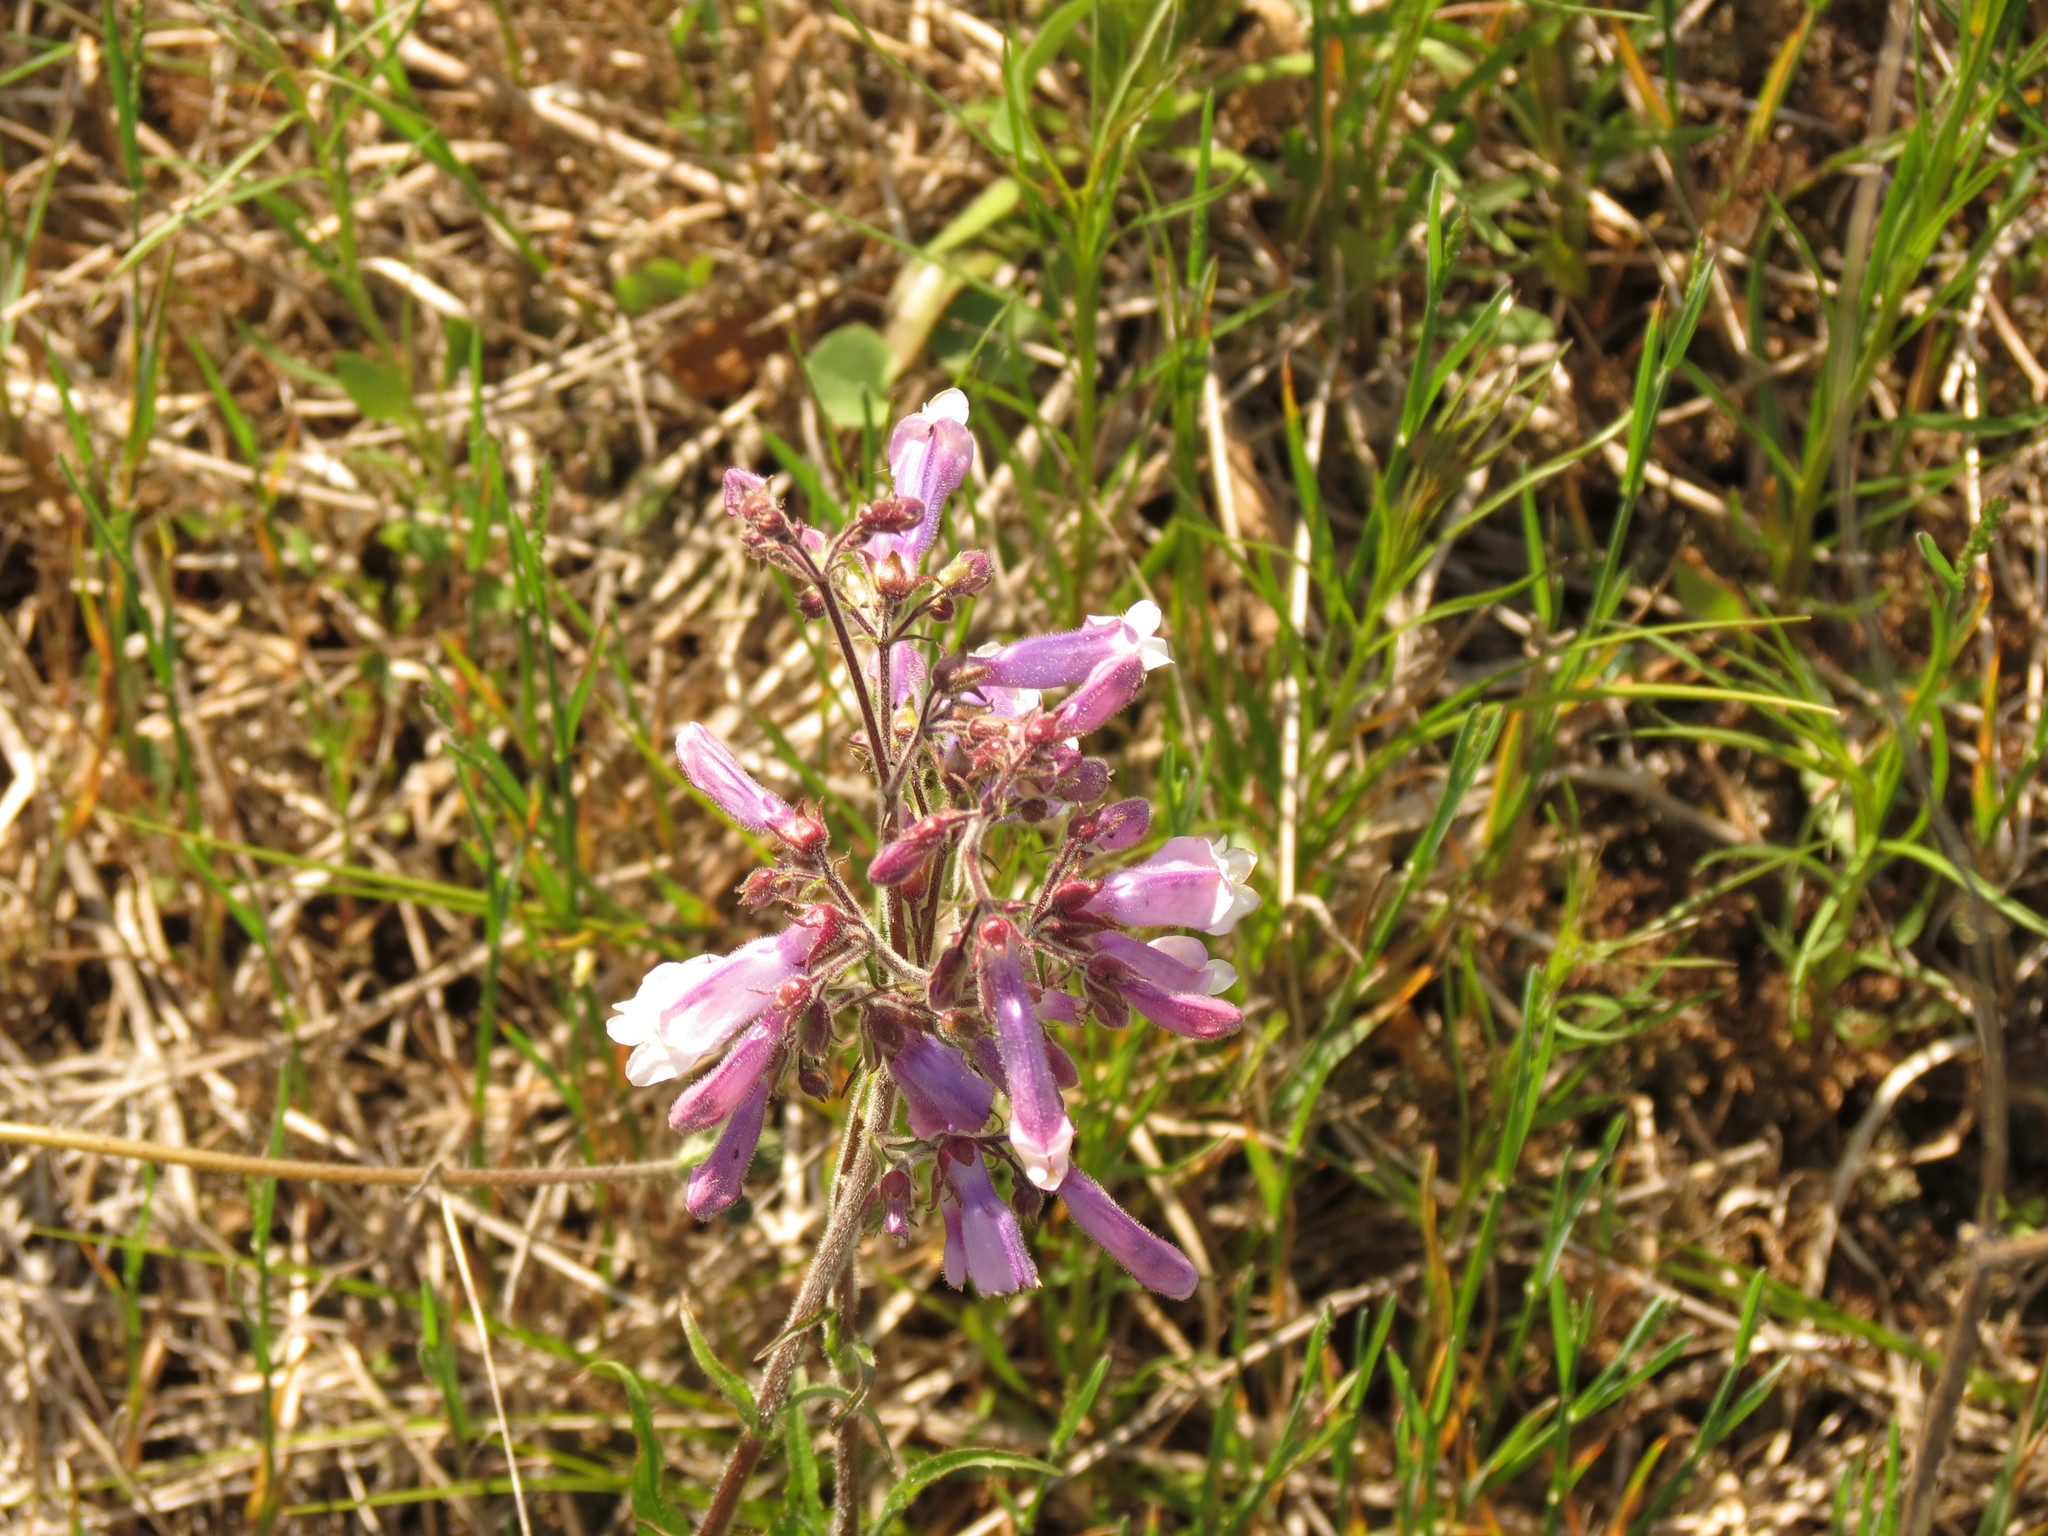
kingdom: Plantae
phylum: Tracheophyta
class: Magnoliopsida
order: Lamiales
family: Plantaginaceae
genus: Penstemon
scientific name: Penstemon hirsutus
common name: Hairy beardtongue
